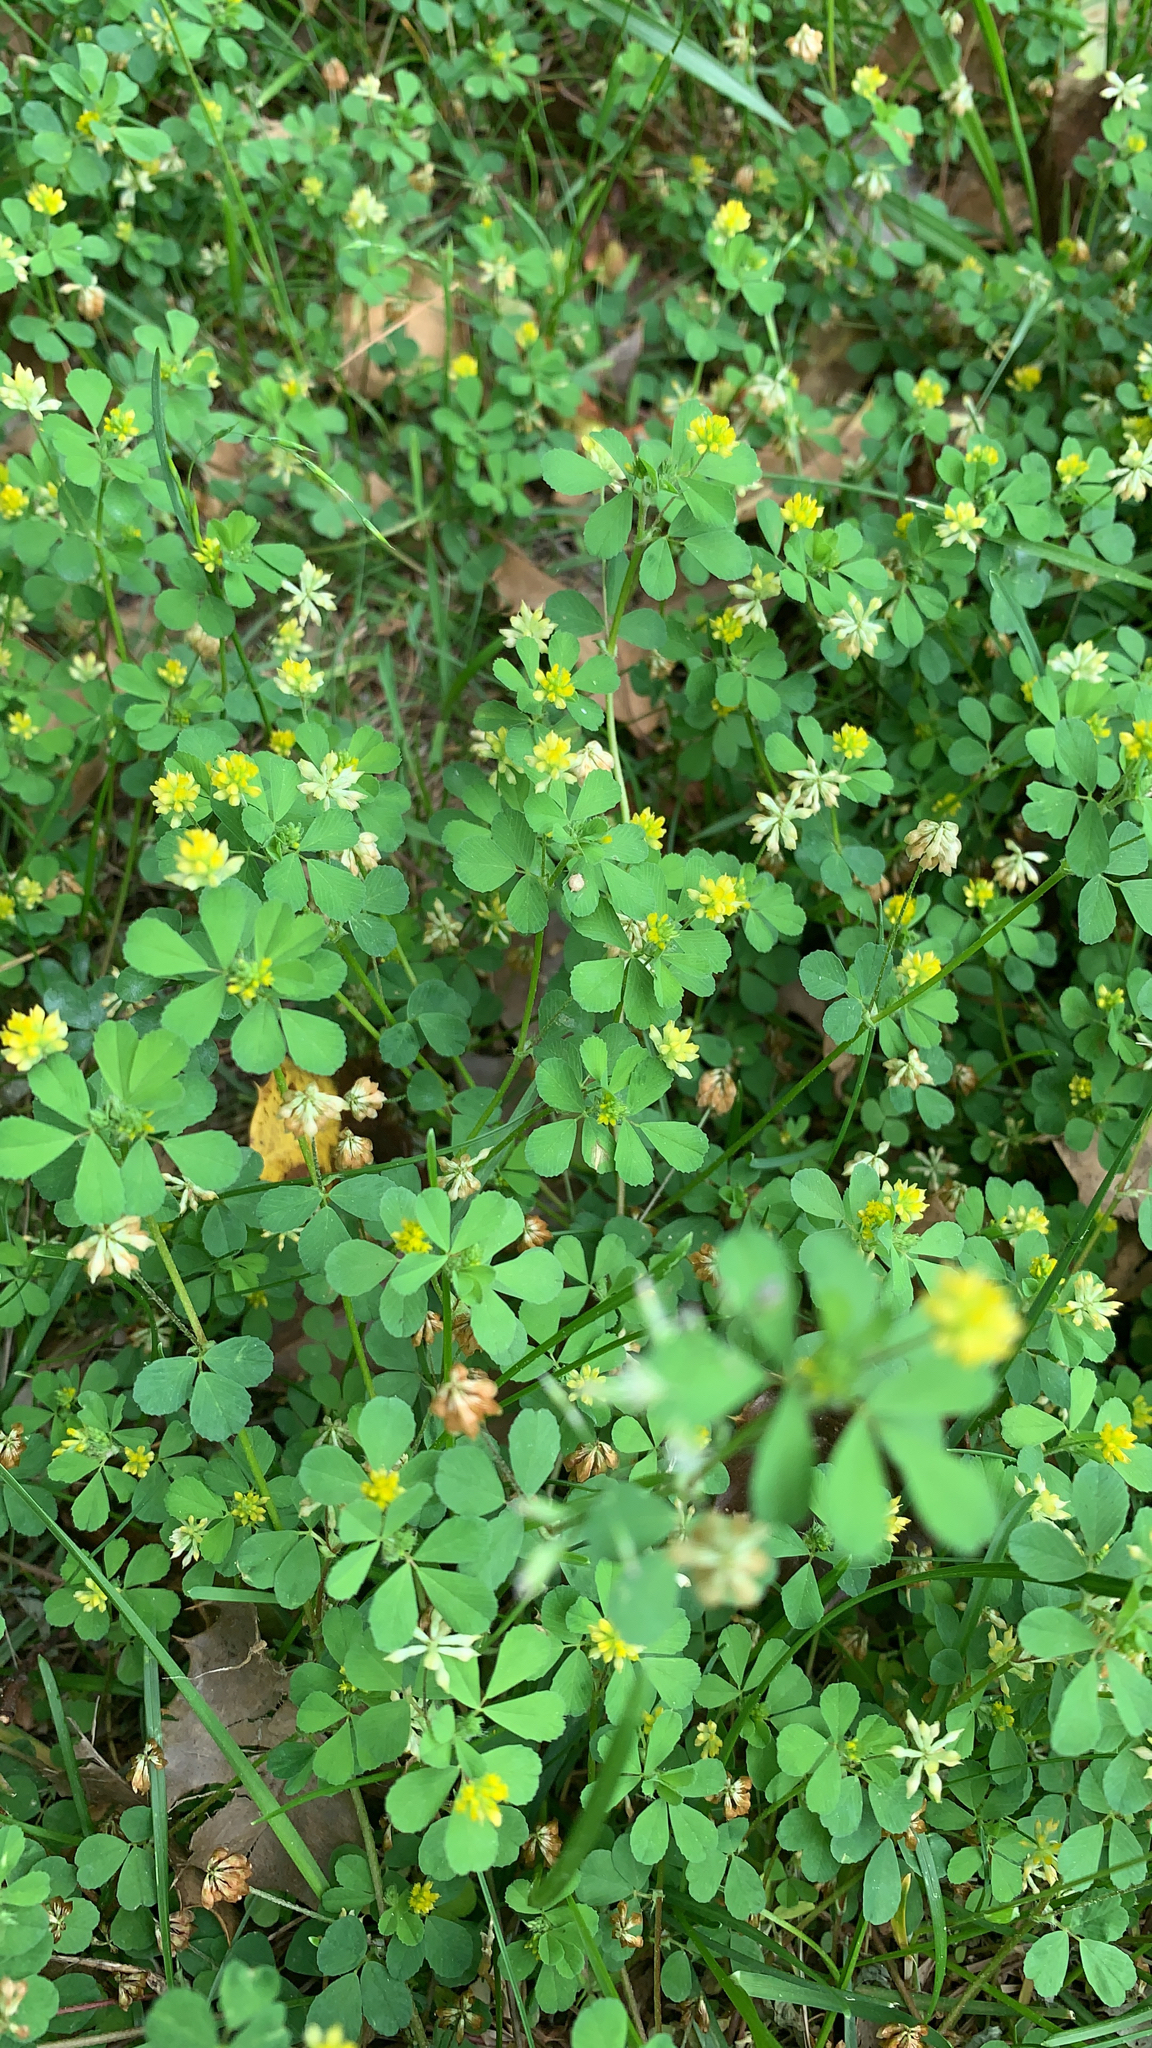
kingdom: Plantae
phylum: Tracheophyta
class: Magnoliopsida
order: Fabales
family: Fabaceae
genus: Trifolium
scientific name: Trifolium dubium
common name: Suckling clover
